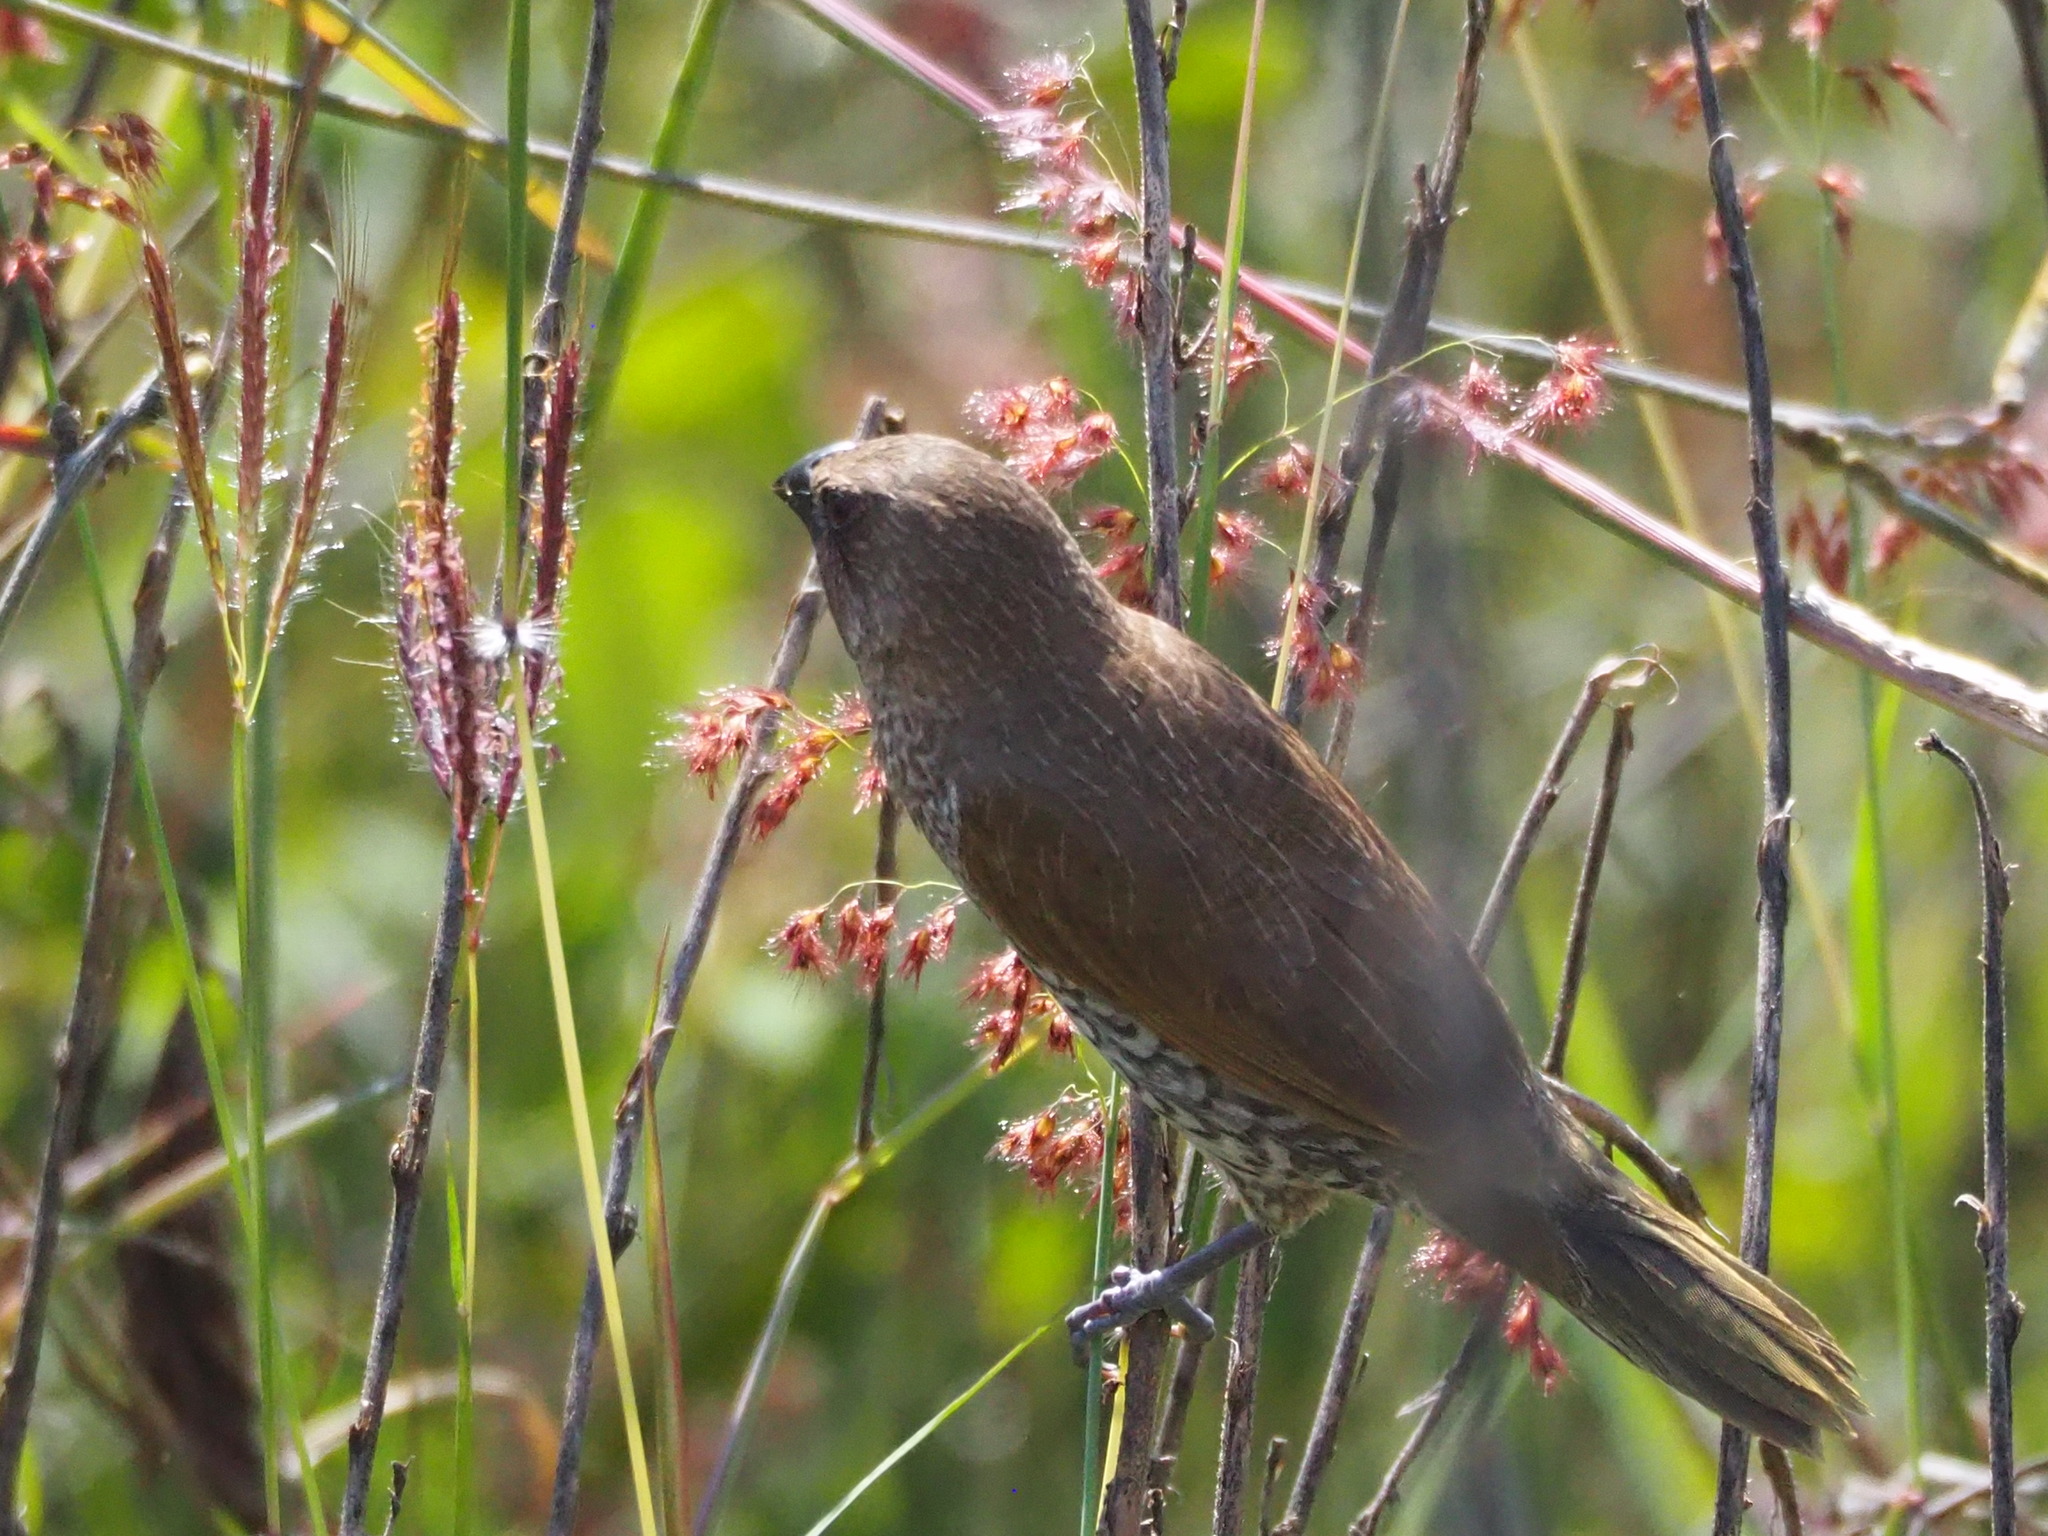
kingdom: Animalia
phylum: Chordata
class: Aves
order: Passeriformes
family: Estrildidae
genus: Lonchura
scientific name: Lonchura punctulata
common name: Scaly-breasted munia
